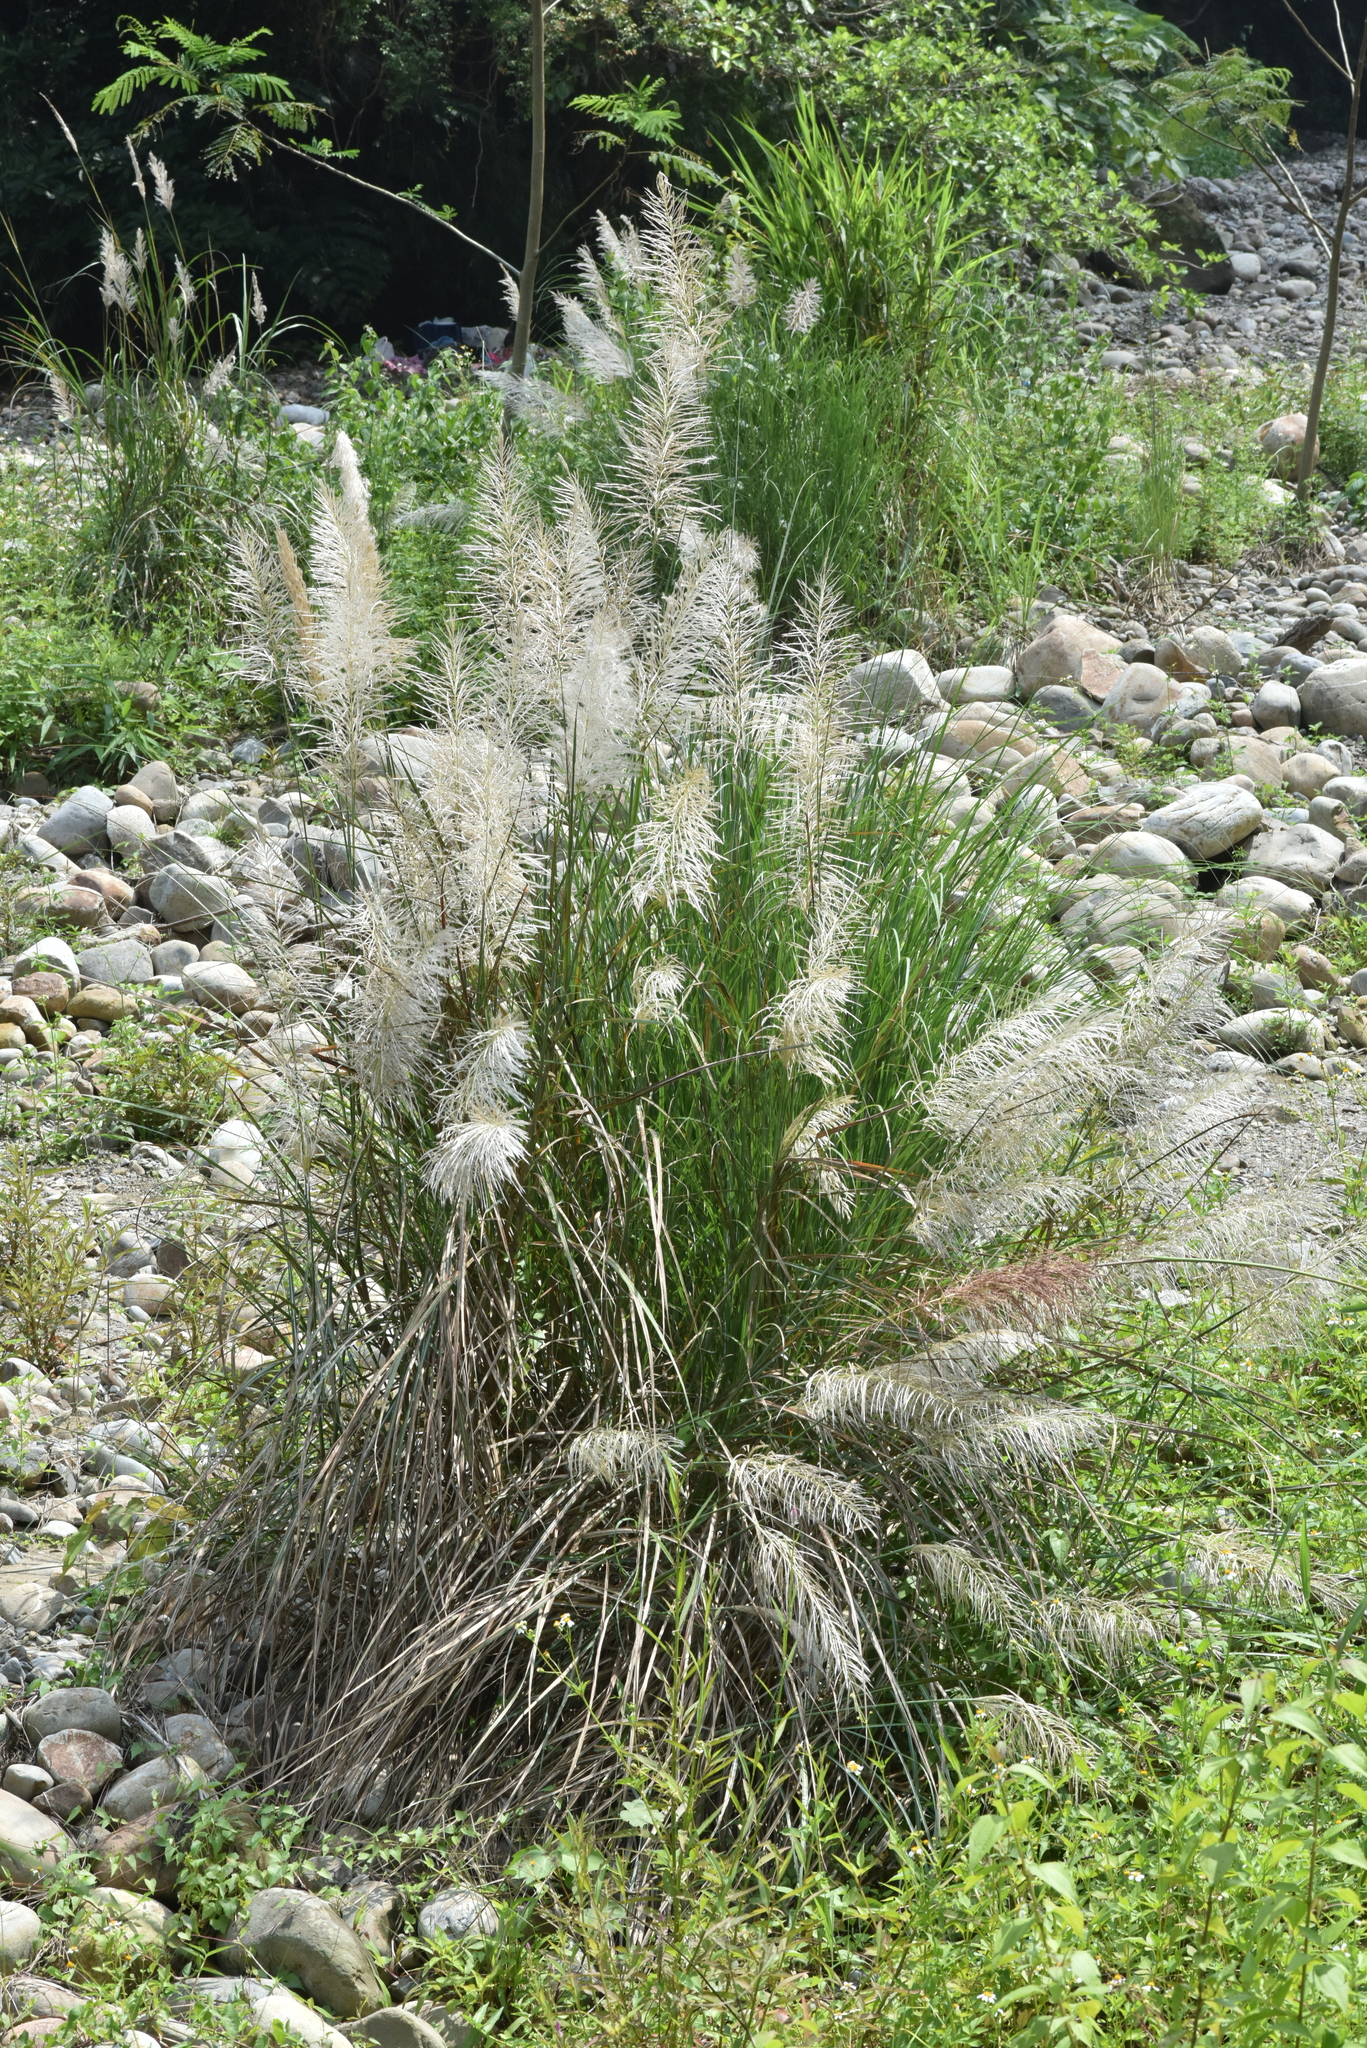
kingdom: Plantae
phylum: Tracheophyta
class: Liliopsida
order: Poales
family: Poaceae
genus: Saccharum
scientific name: Saccharum spontaneum
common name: Wild sugarcane
